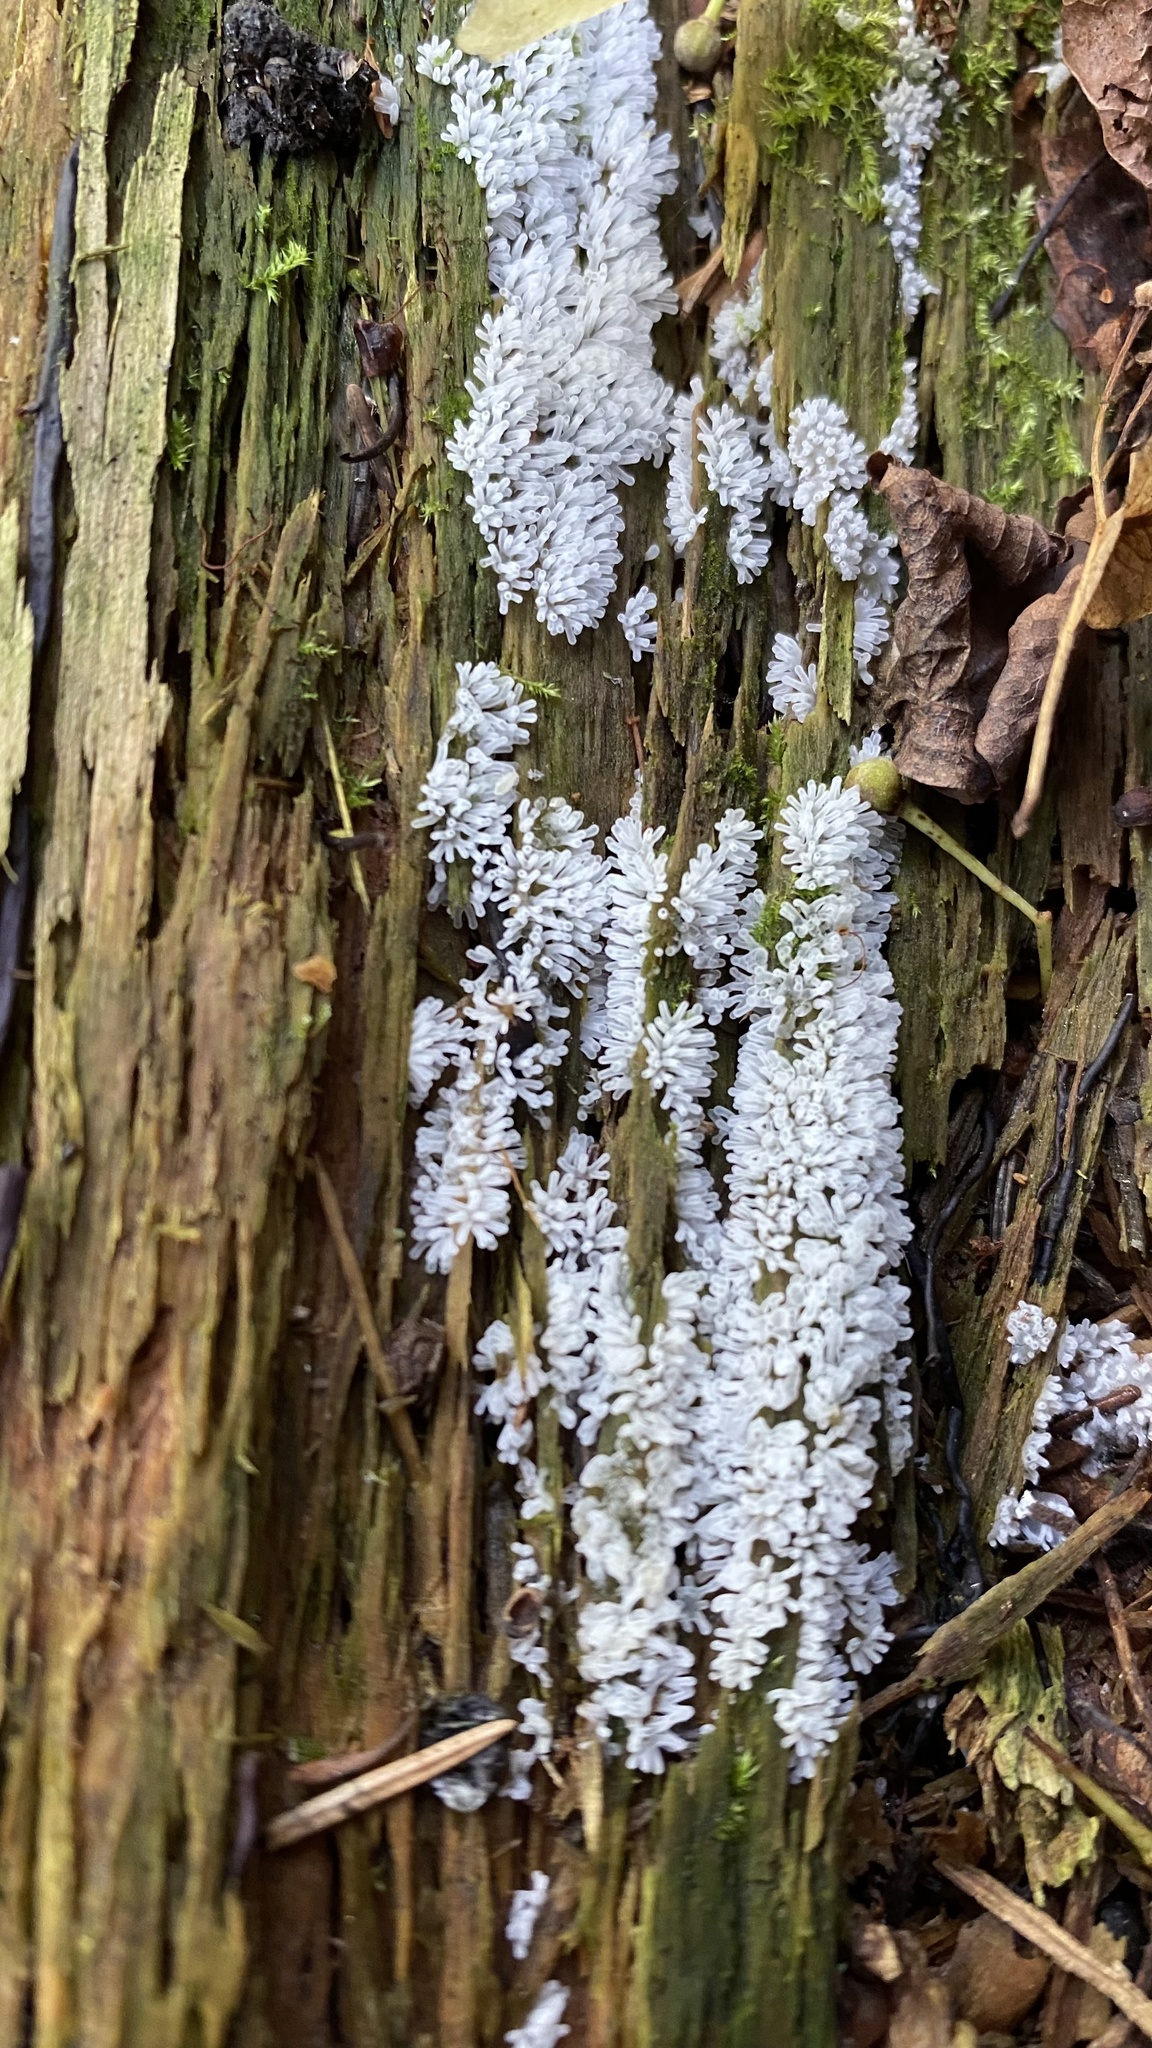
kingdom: Protozoa
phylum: Mycetozoa
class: Protosteliomycetes
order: Ceratiomyxales
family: Ceratiomyxaceae
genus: Ceratiomyxa
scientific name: Ceratiomyxa fruticulosa
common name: Honeycomb coral slime mold
